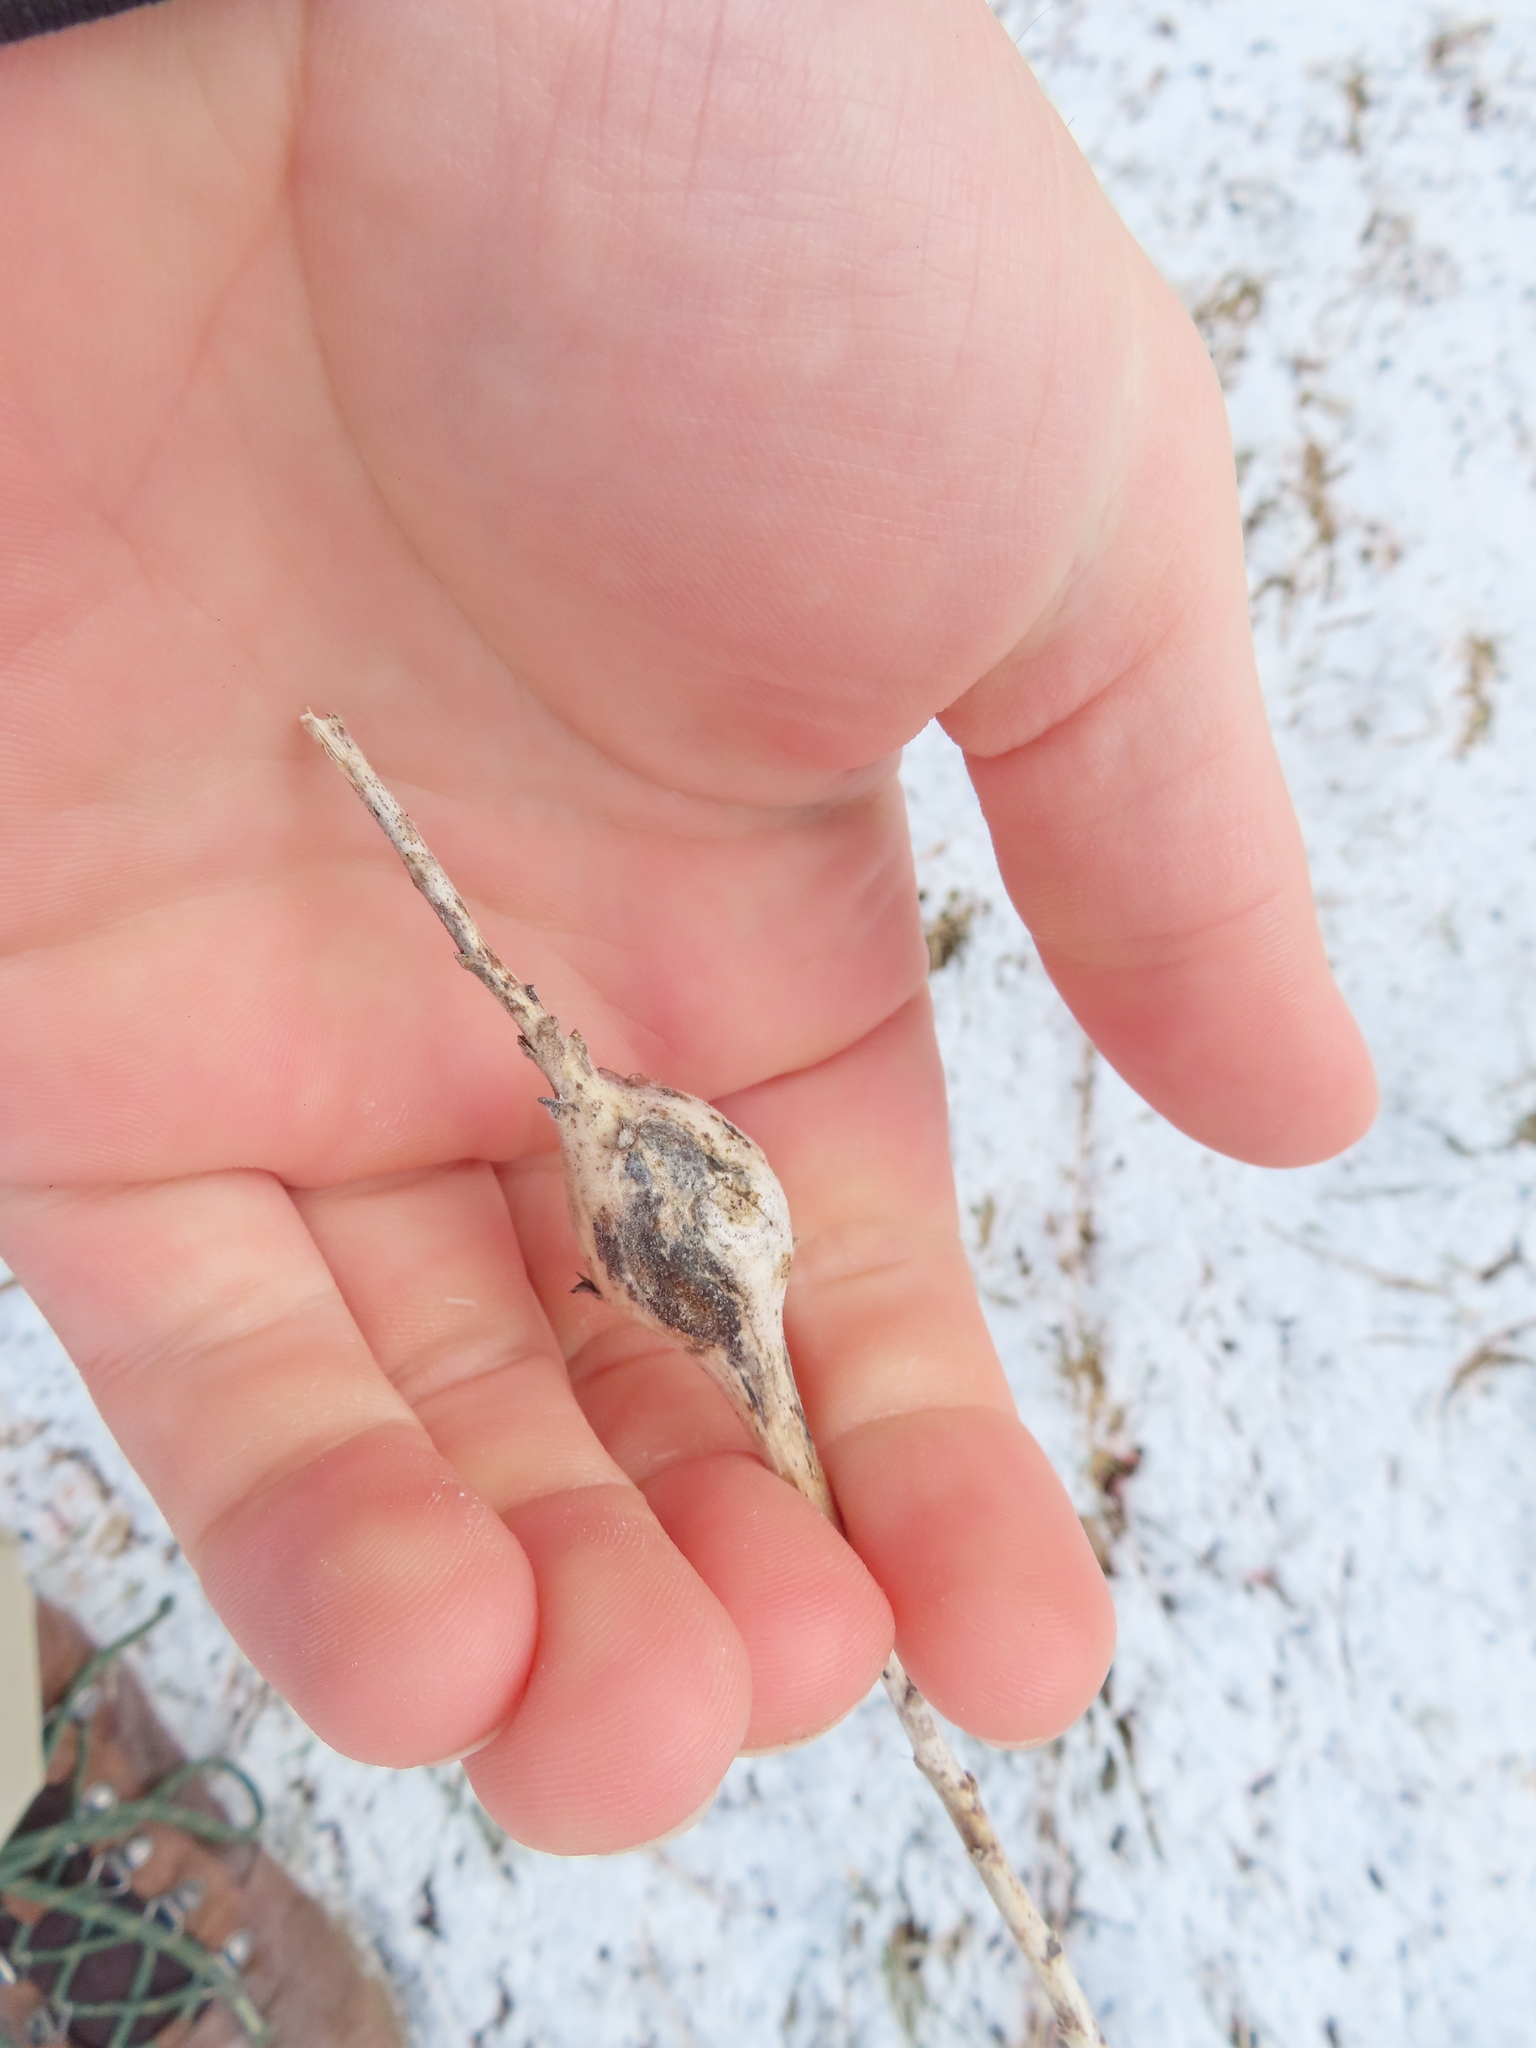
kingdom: Animalia
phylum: Arthropoda
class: Insecta
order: Diptera
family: Tephritidae
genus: Eurosta
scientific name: Eurosta solidaginis
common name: Goldenrod gall fly
